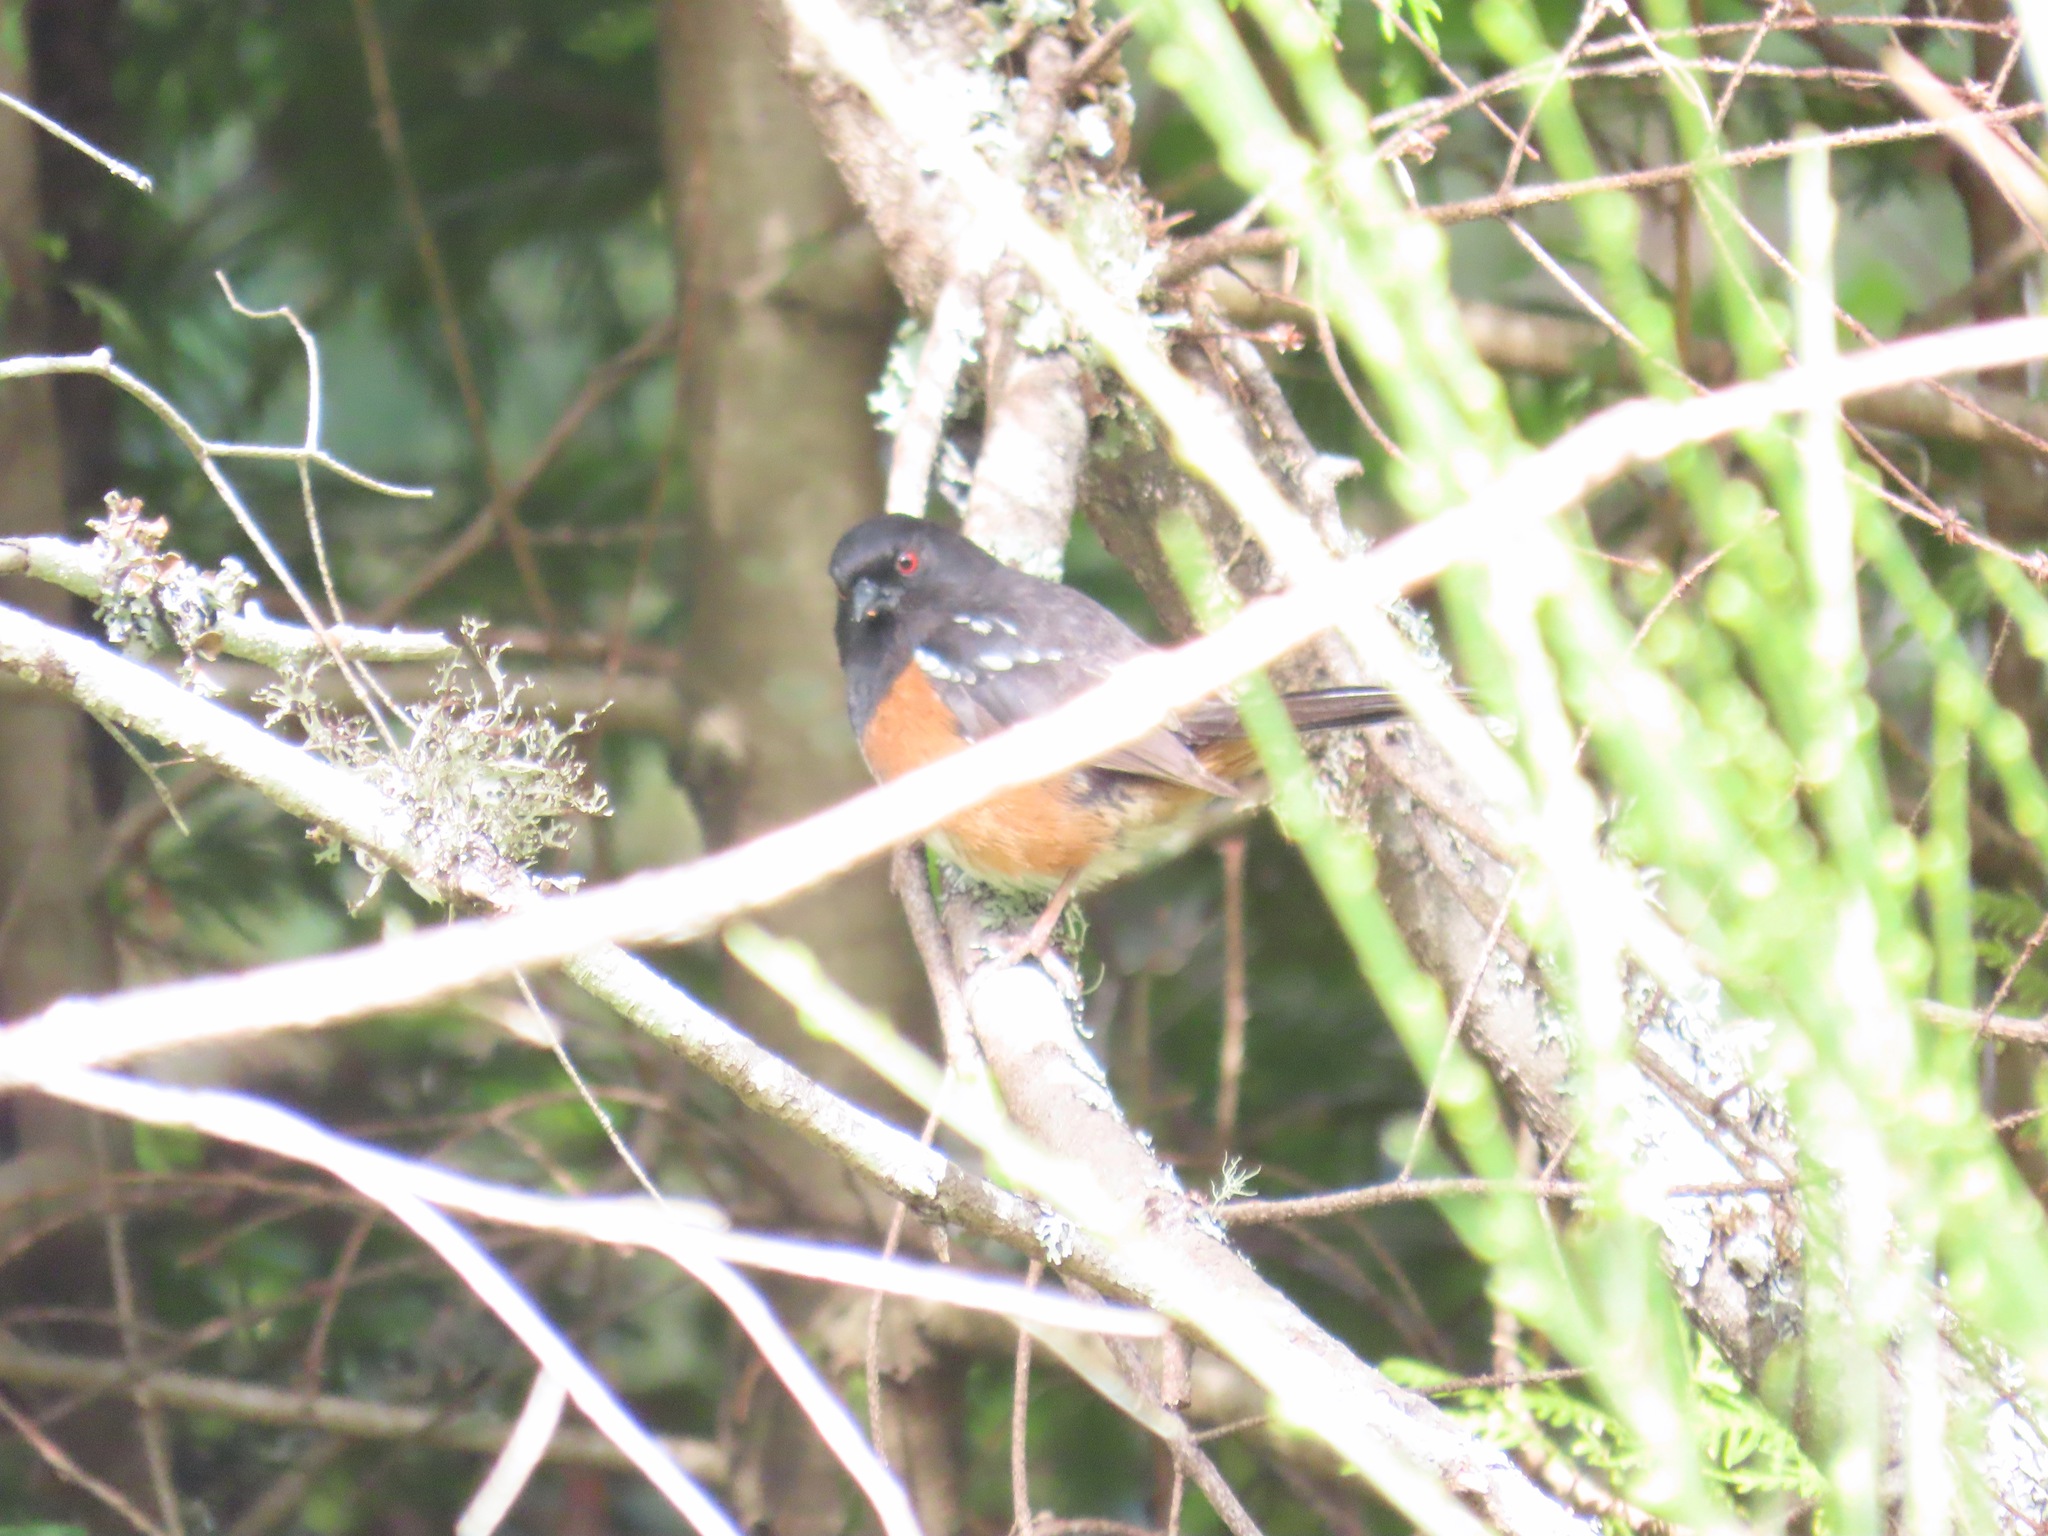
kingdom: Animalia
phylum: Chordata
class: Aves
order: Passeriformes
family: Passerellidae
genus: Pipilo
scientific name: Pipilo maculatus
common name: Spotted towhee
